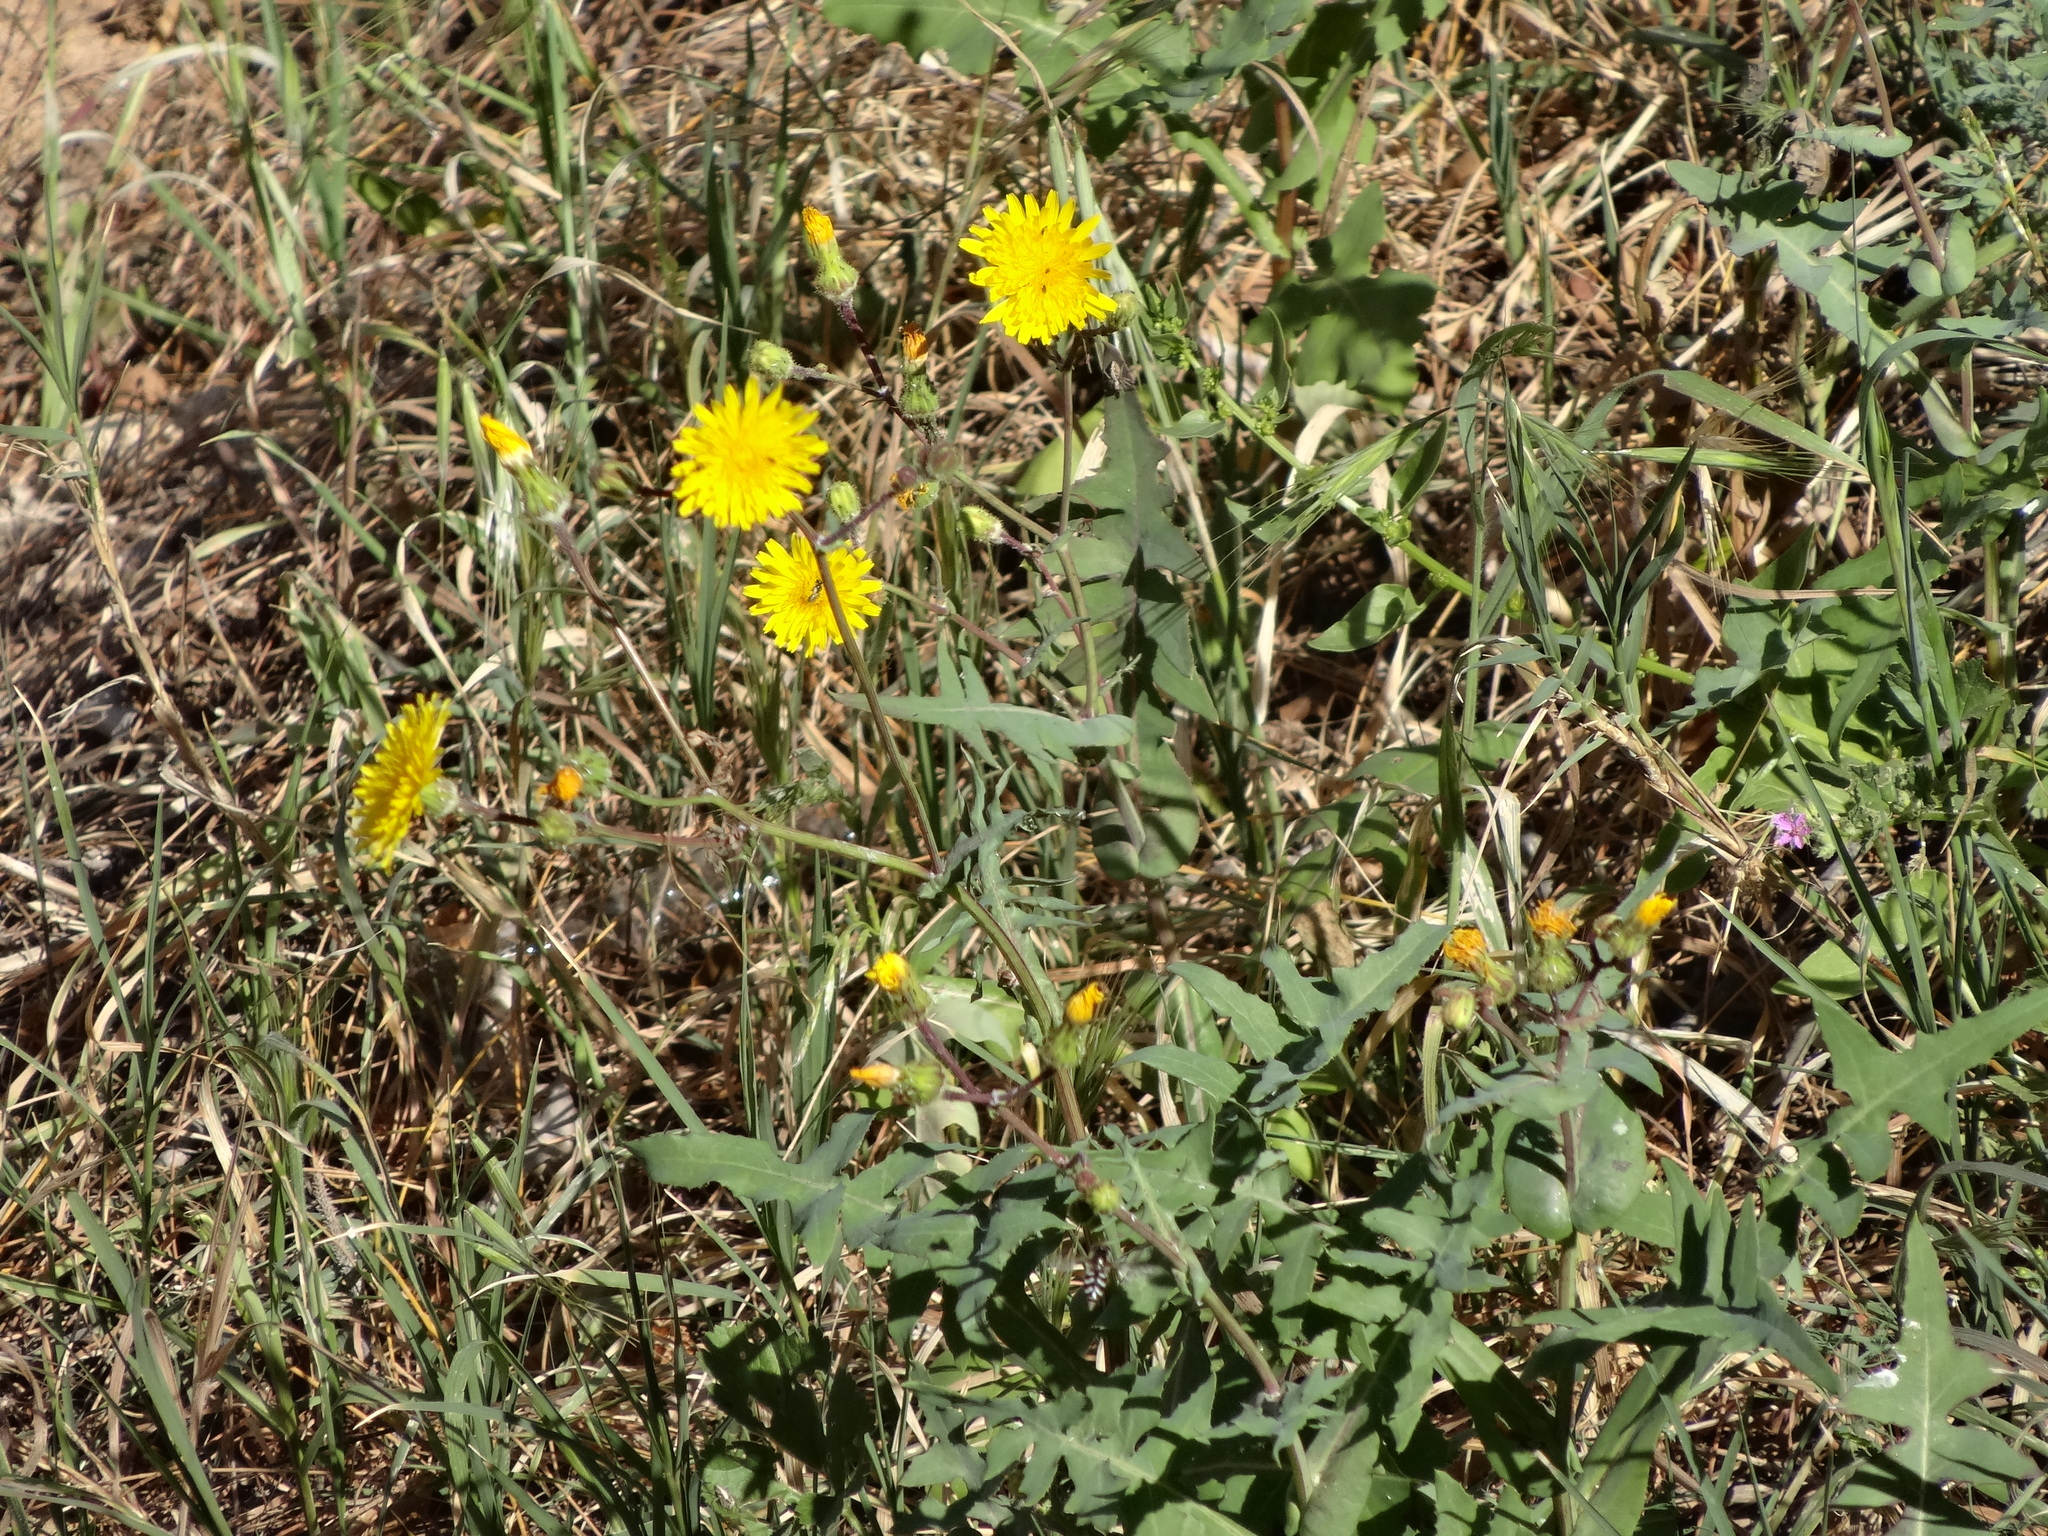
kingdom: Plantae
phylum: Tracheophyta
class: Magnoliopsida
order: Asterales
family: Asteraceae
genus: Sonchus
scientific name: Sonchus oleraceus
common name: Common sowthistle
